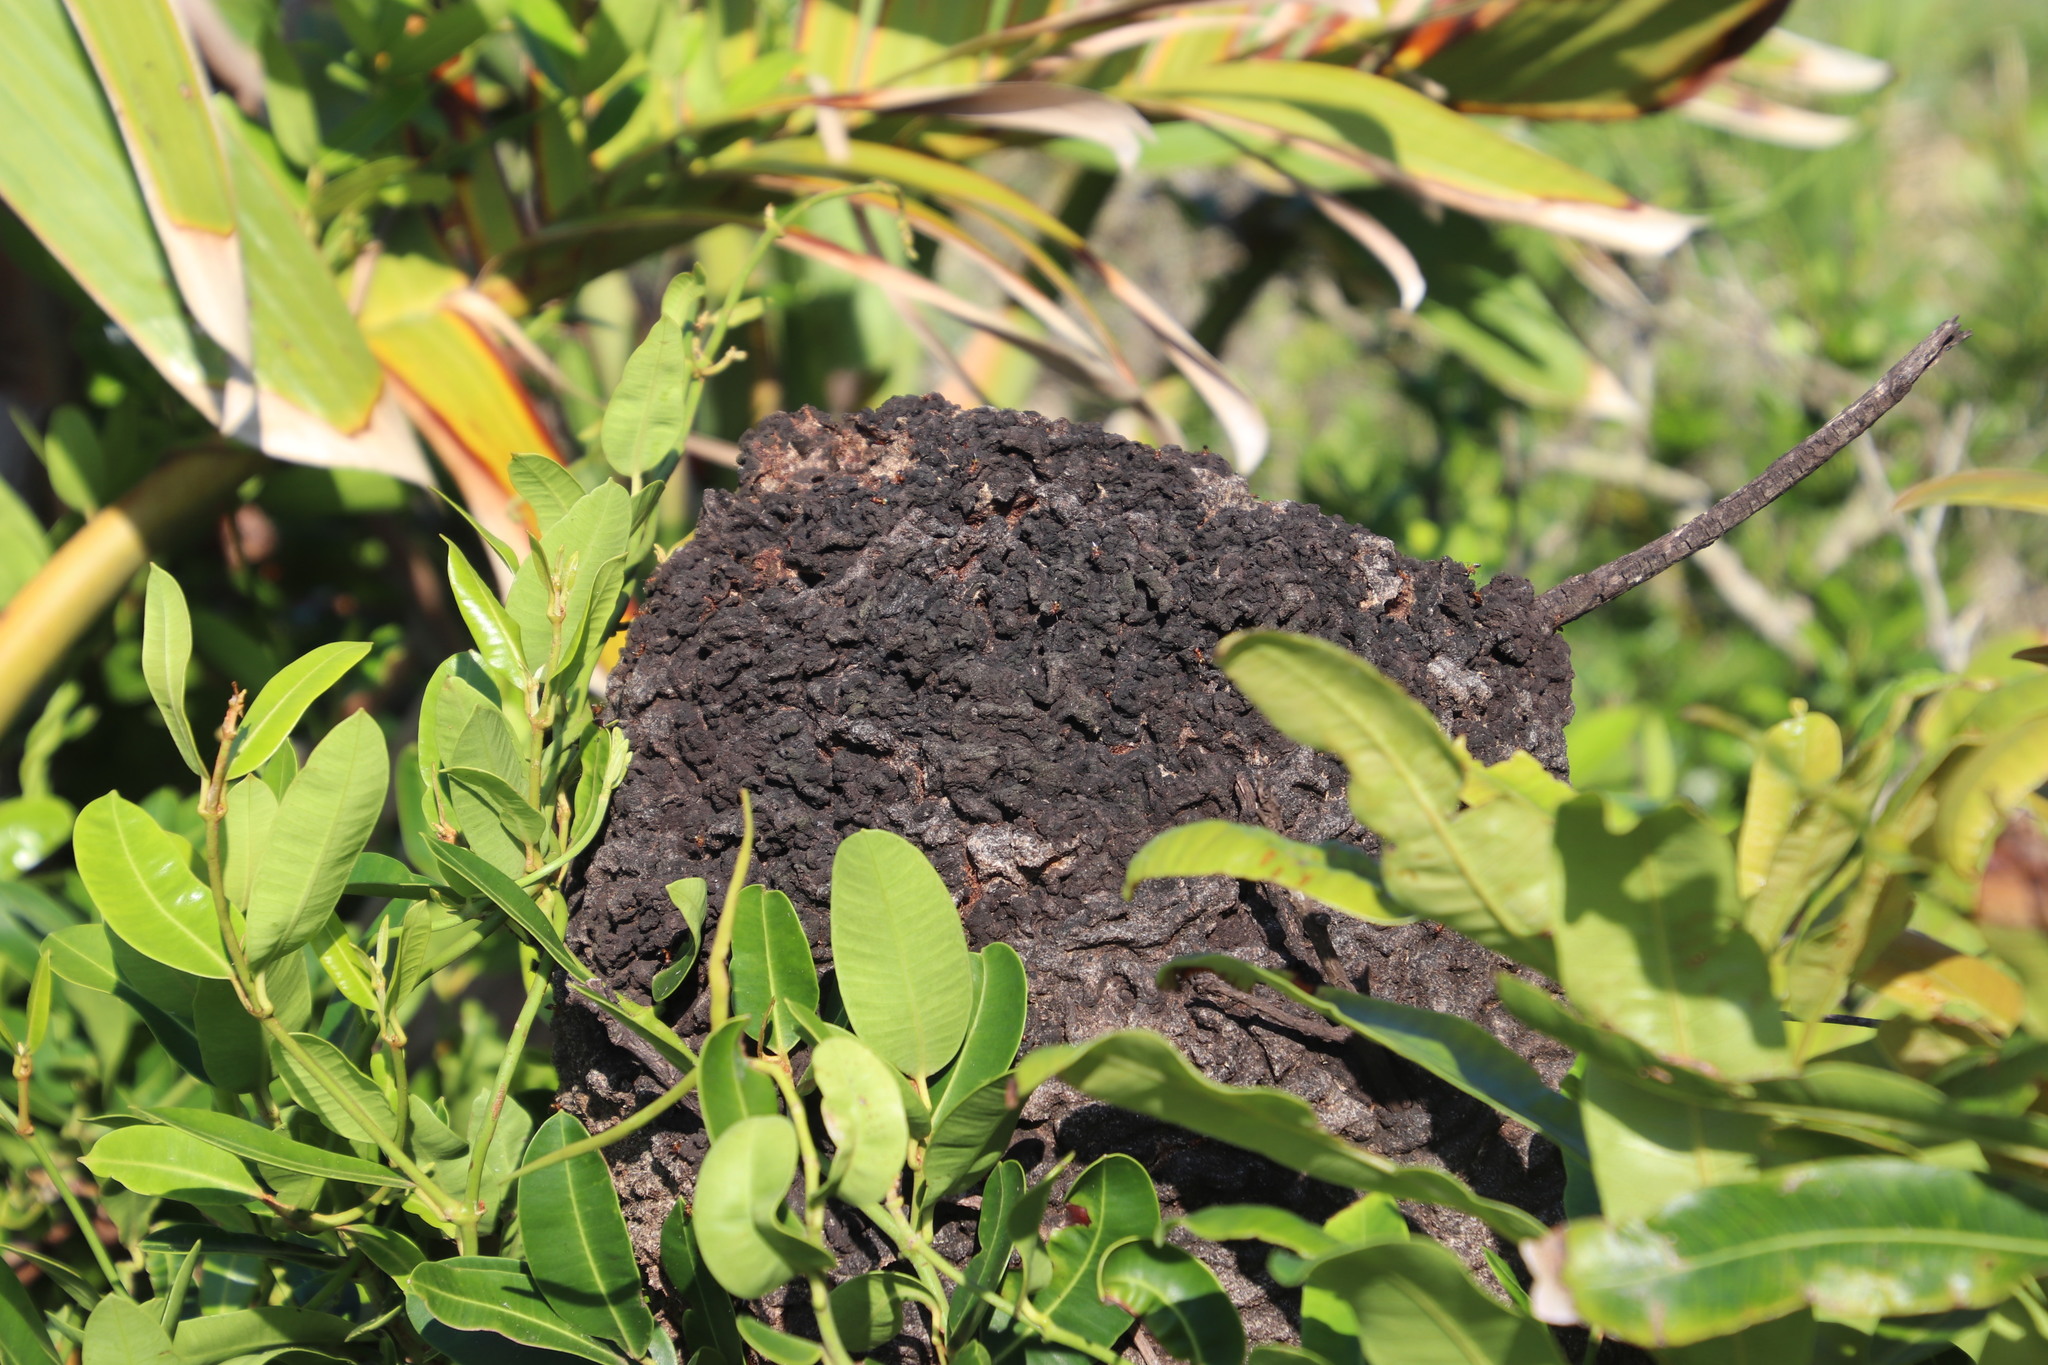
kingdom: Animalia
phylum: Arthropoda
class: Insecta
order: Hymenoptera
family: Formicidae
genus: Crematogaster
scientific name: Crematogaster castanea
